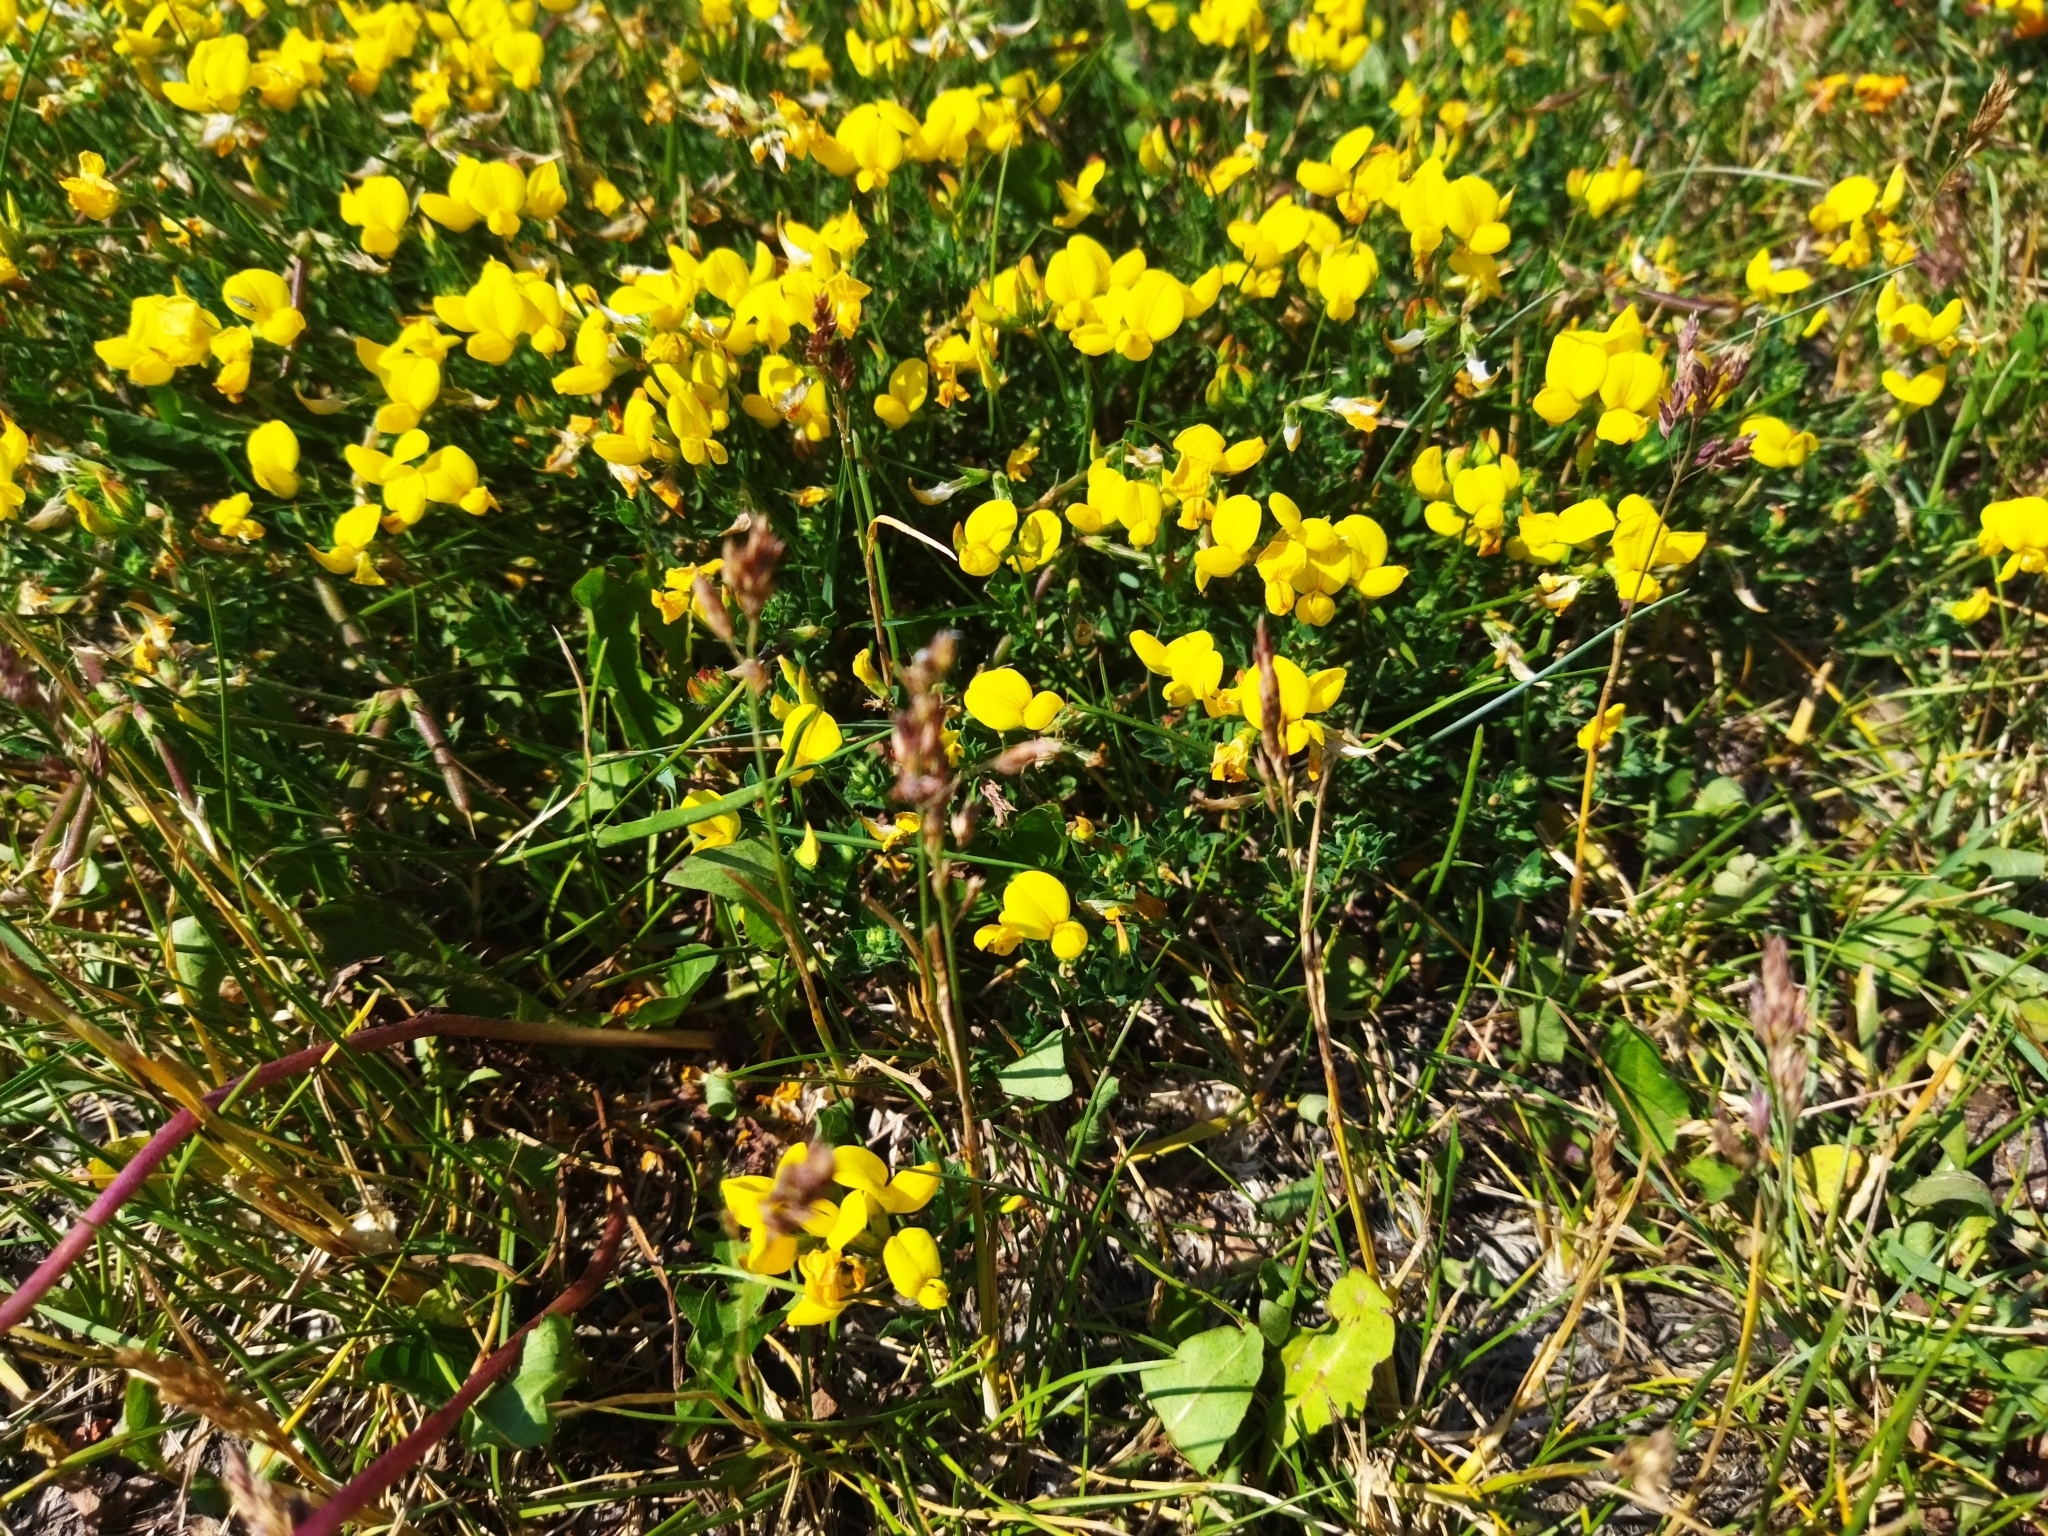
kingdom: Plantae
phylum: Tracheophyta
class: Magnoliopsida
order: Fabales
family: Fabaceae
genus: Lotus
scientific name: Lotus corniculatus
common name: Common bird's-foot-trefoil
